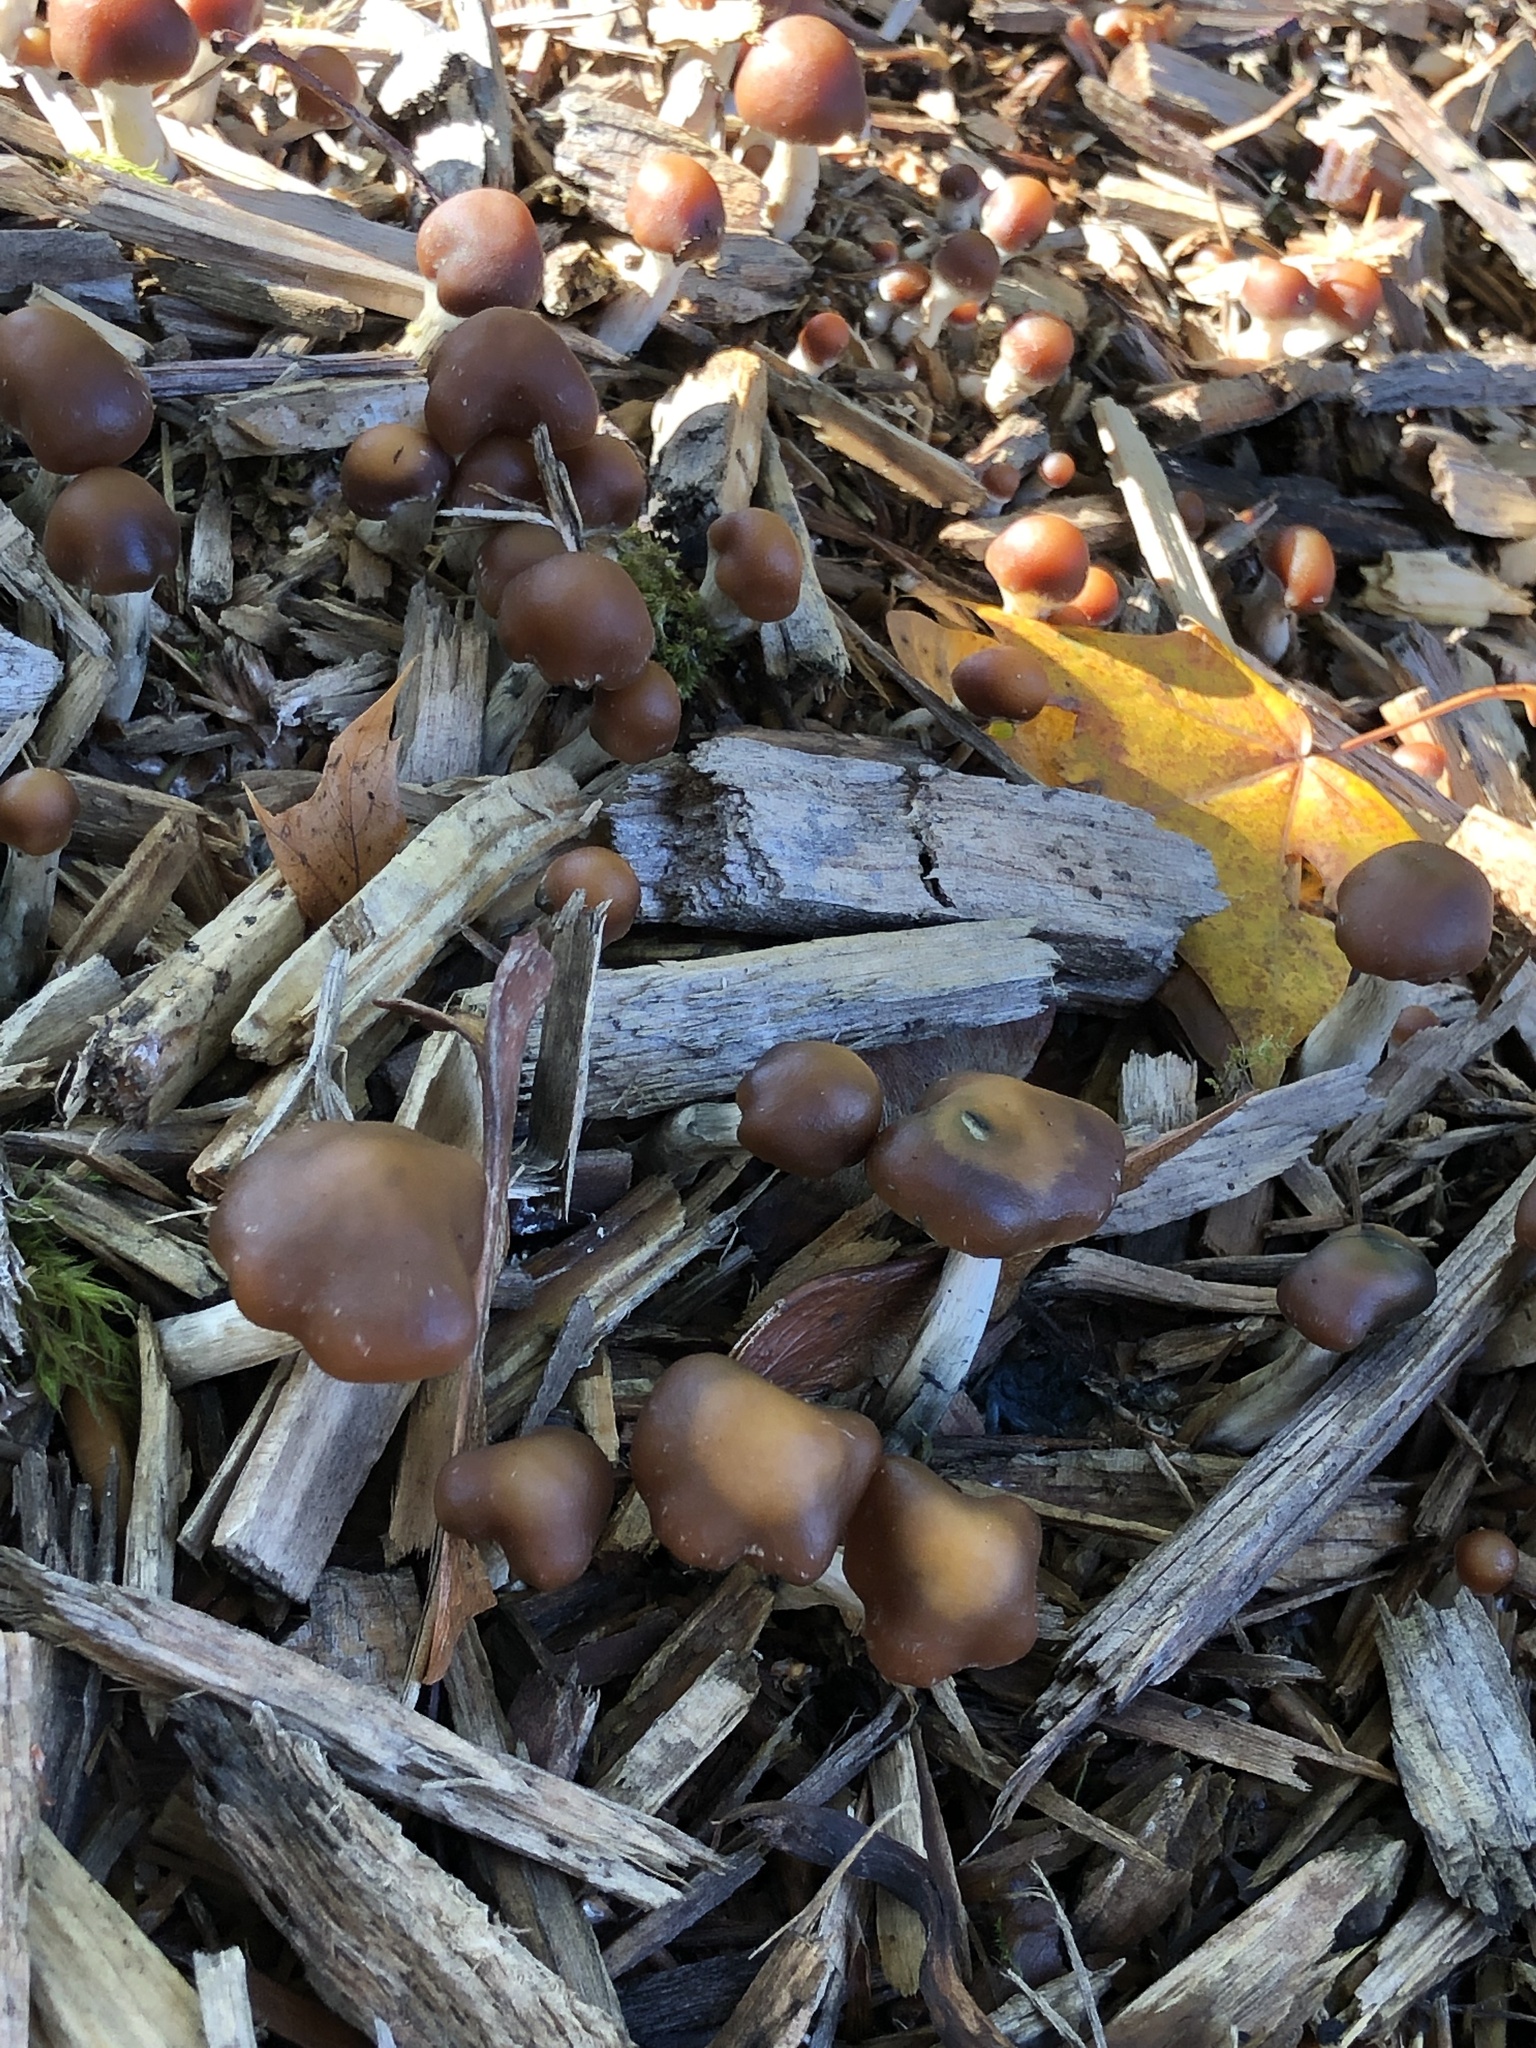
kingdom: Fungi
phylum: Basidiomycota
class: Agaricomycetes
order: Agaricales
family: Hymenogastraceae
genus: Psilocybe
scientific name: Psilocybe cyanescens
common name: Blueleg brownie
